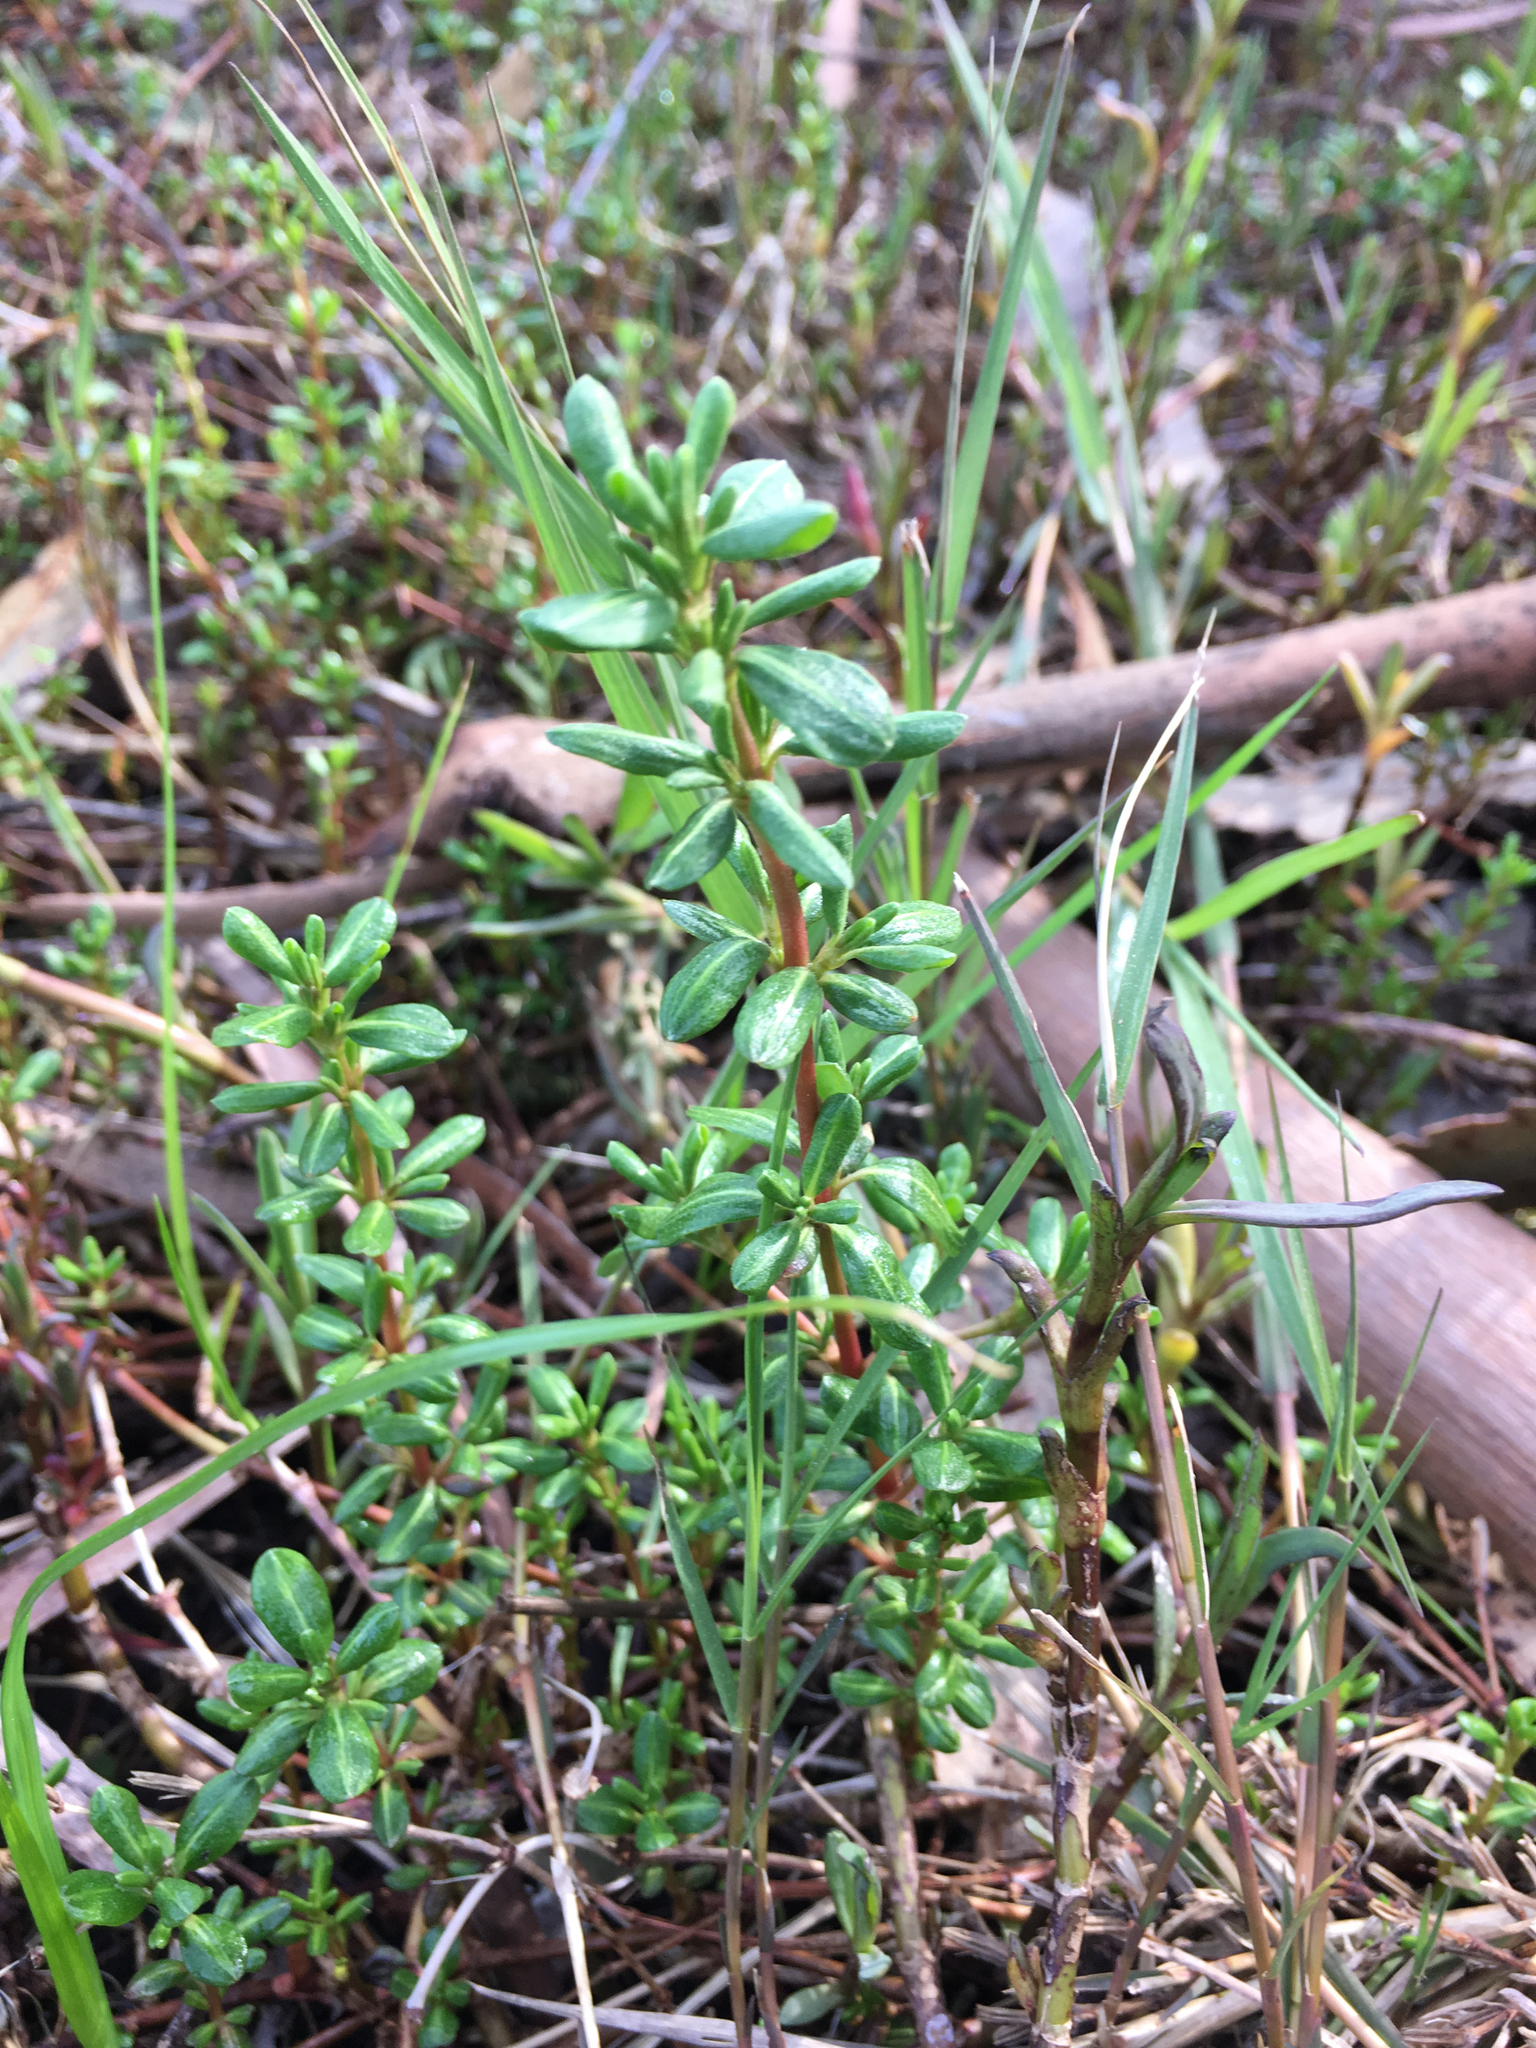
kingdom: Plantae
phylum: Tracheophyta
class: Magnoliopsida
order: Caryophyllales
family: Frankeniaceae
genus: Frankenia
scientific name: Frankenia salina
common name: Alkali seaheath
